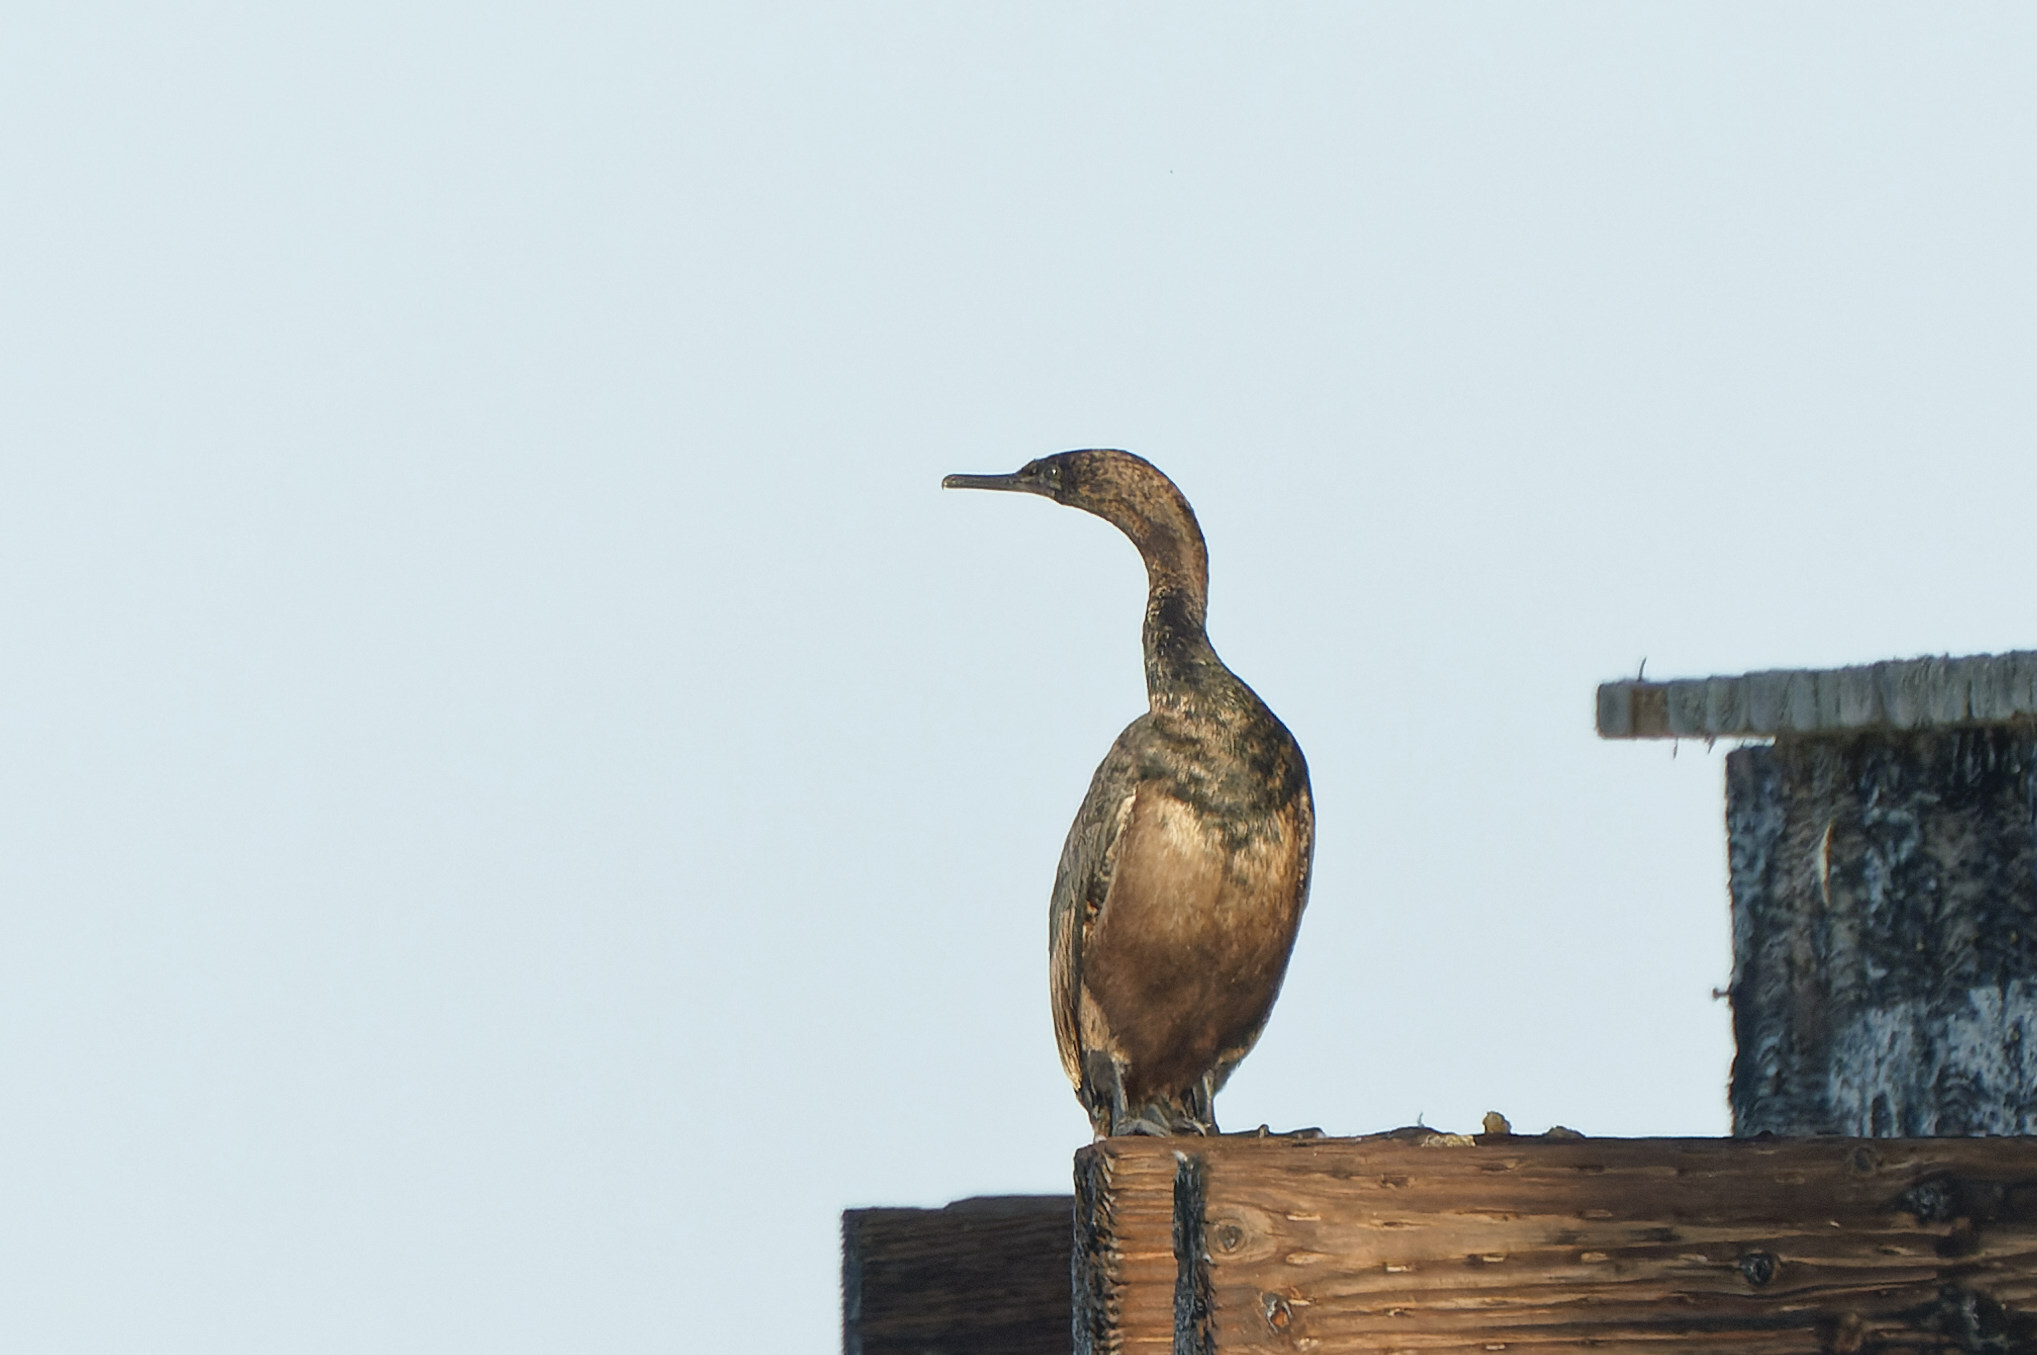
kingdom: Animalia
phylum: Chordata
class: Aves
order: Suliformes
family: Phalacrocoracidae
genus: Phalacrocorax
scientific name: Phalacrocorax pelagicus
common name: Pelagic cormorant
